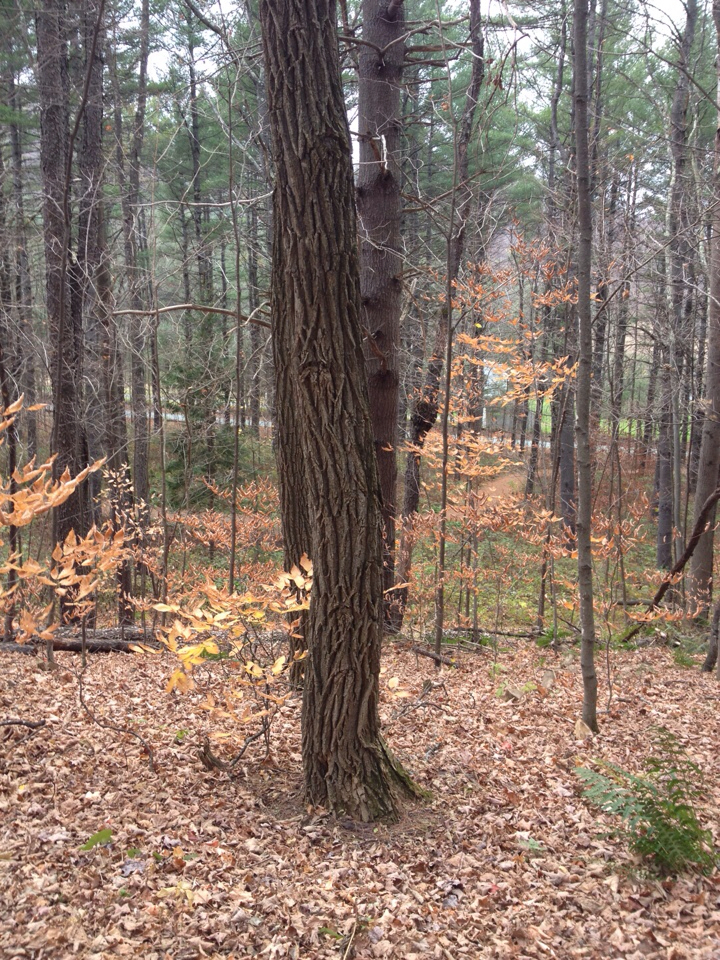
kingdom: Plantae
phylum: Tracheophyta
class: Magnoliopsida
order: Fabales
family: Fabaceae
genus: Robinia
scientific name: Robinia pseudoacacia
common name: Black locust
